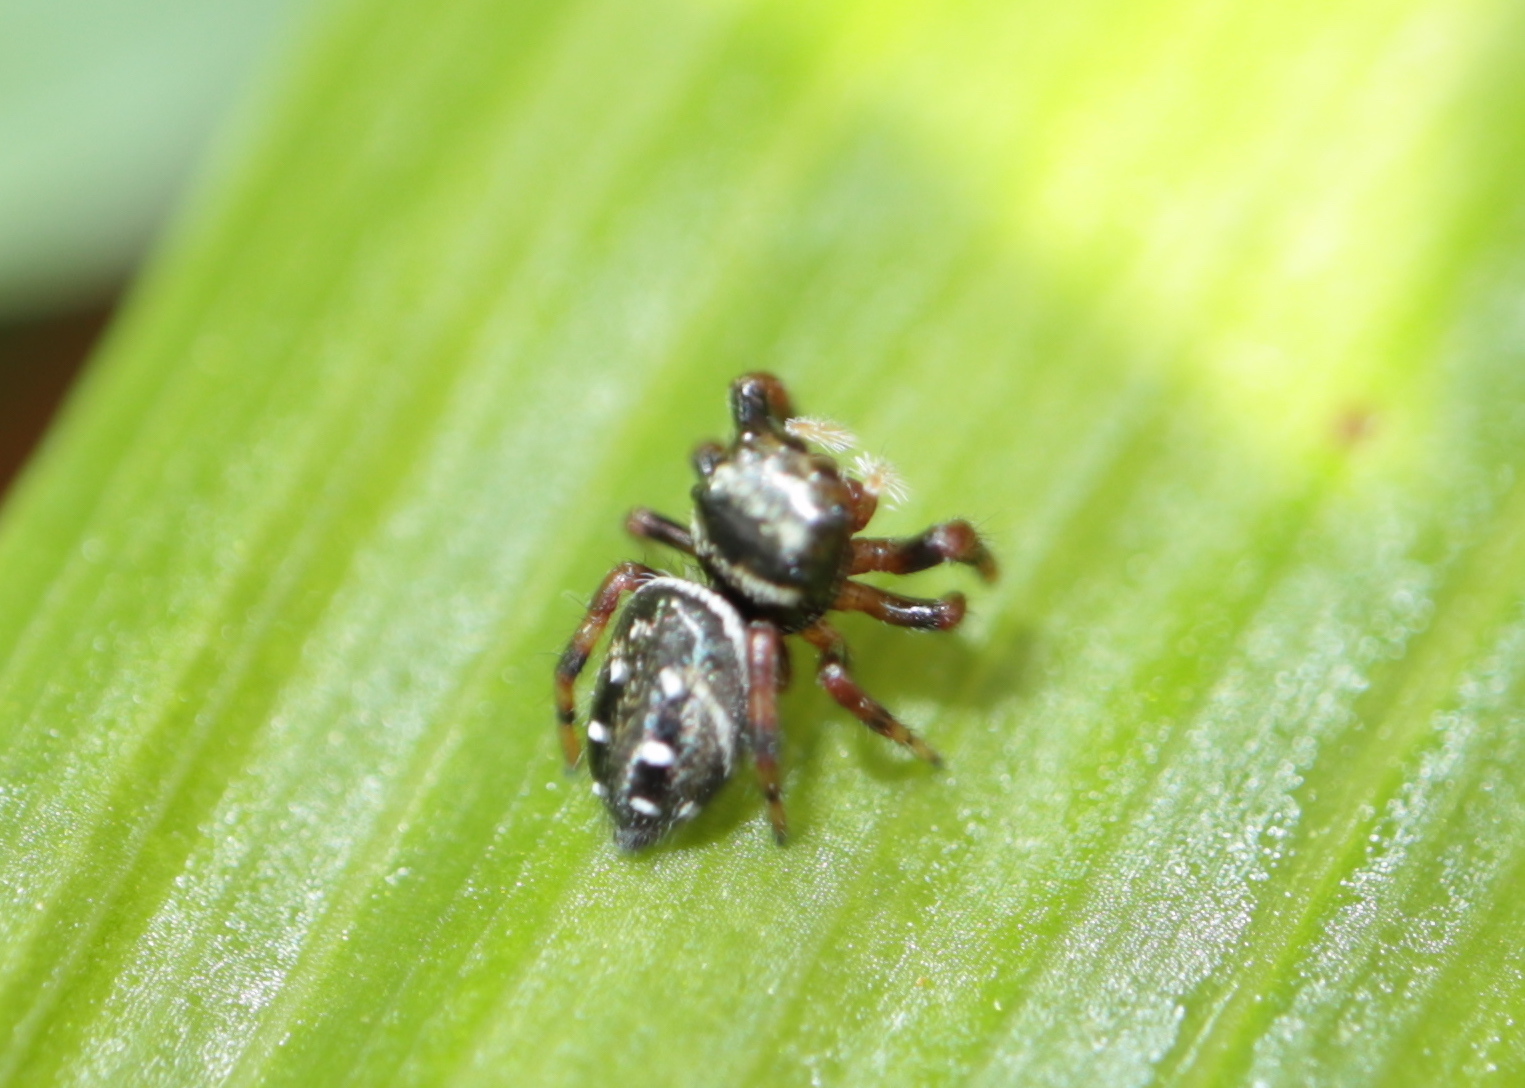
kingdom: Animalia
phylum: Arthropoda
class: Arachnida
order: Araneae
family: Salticidae
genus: Paraphidippus
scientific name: Paraphidippus aurantius
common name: Jumping spiders
